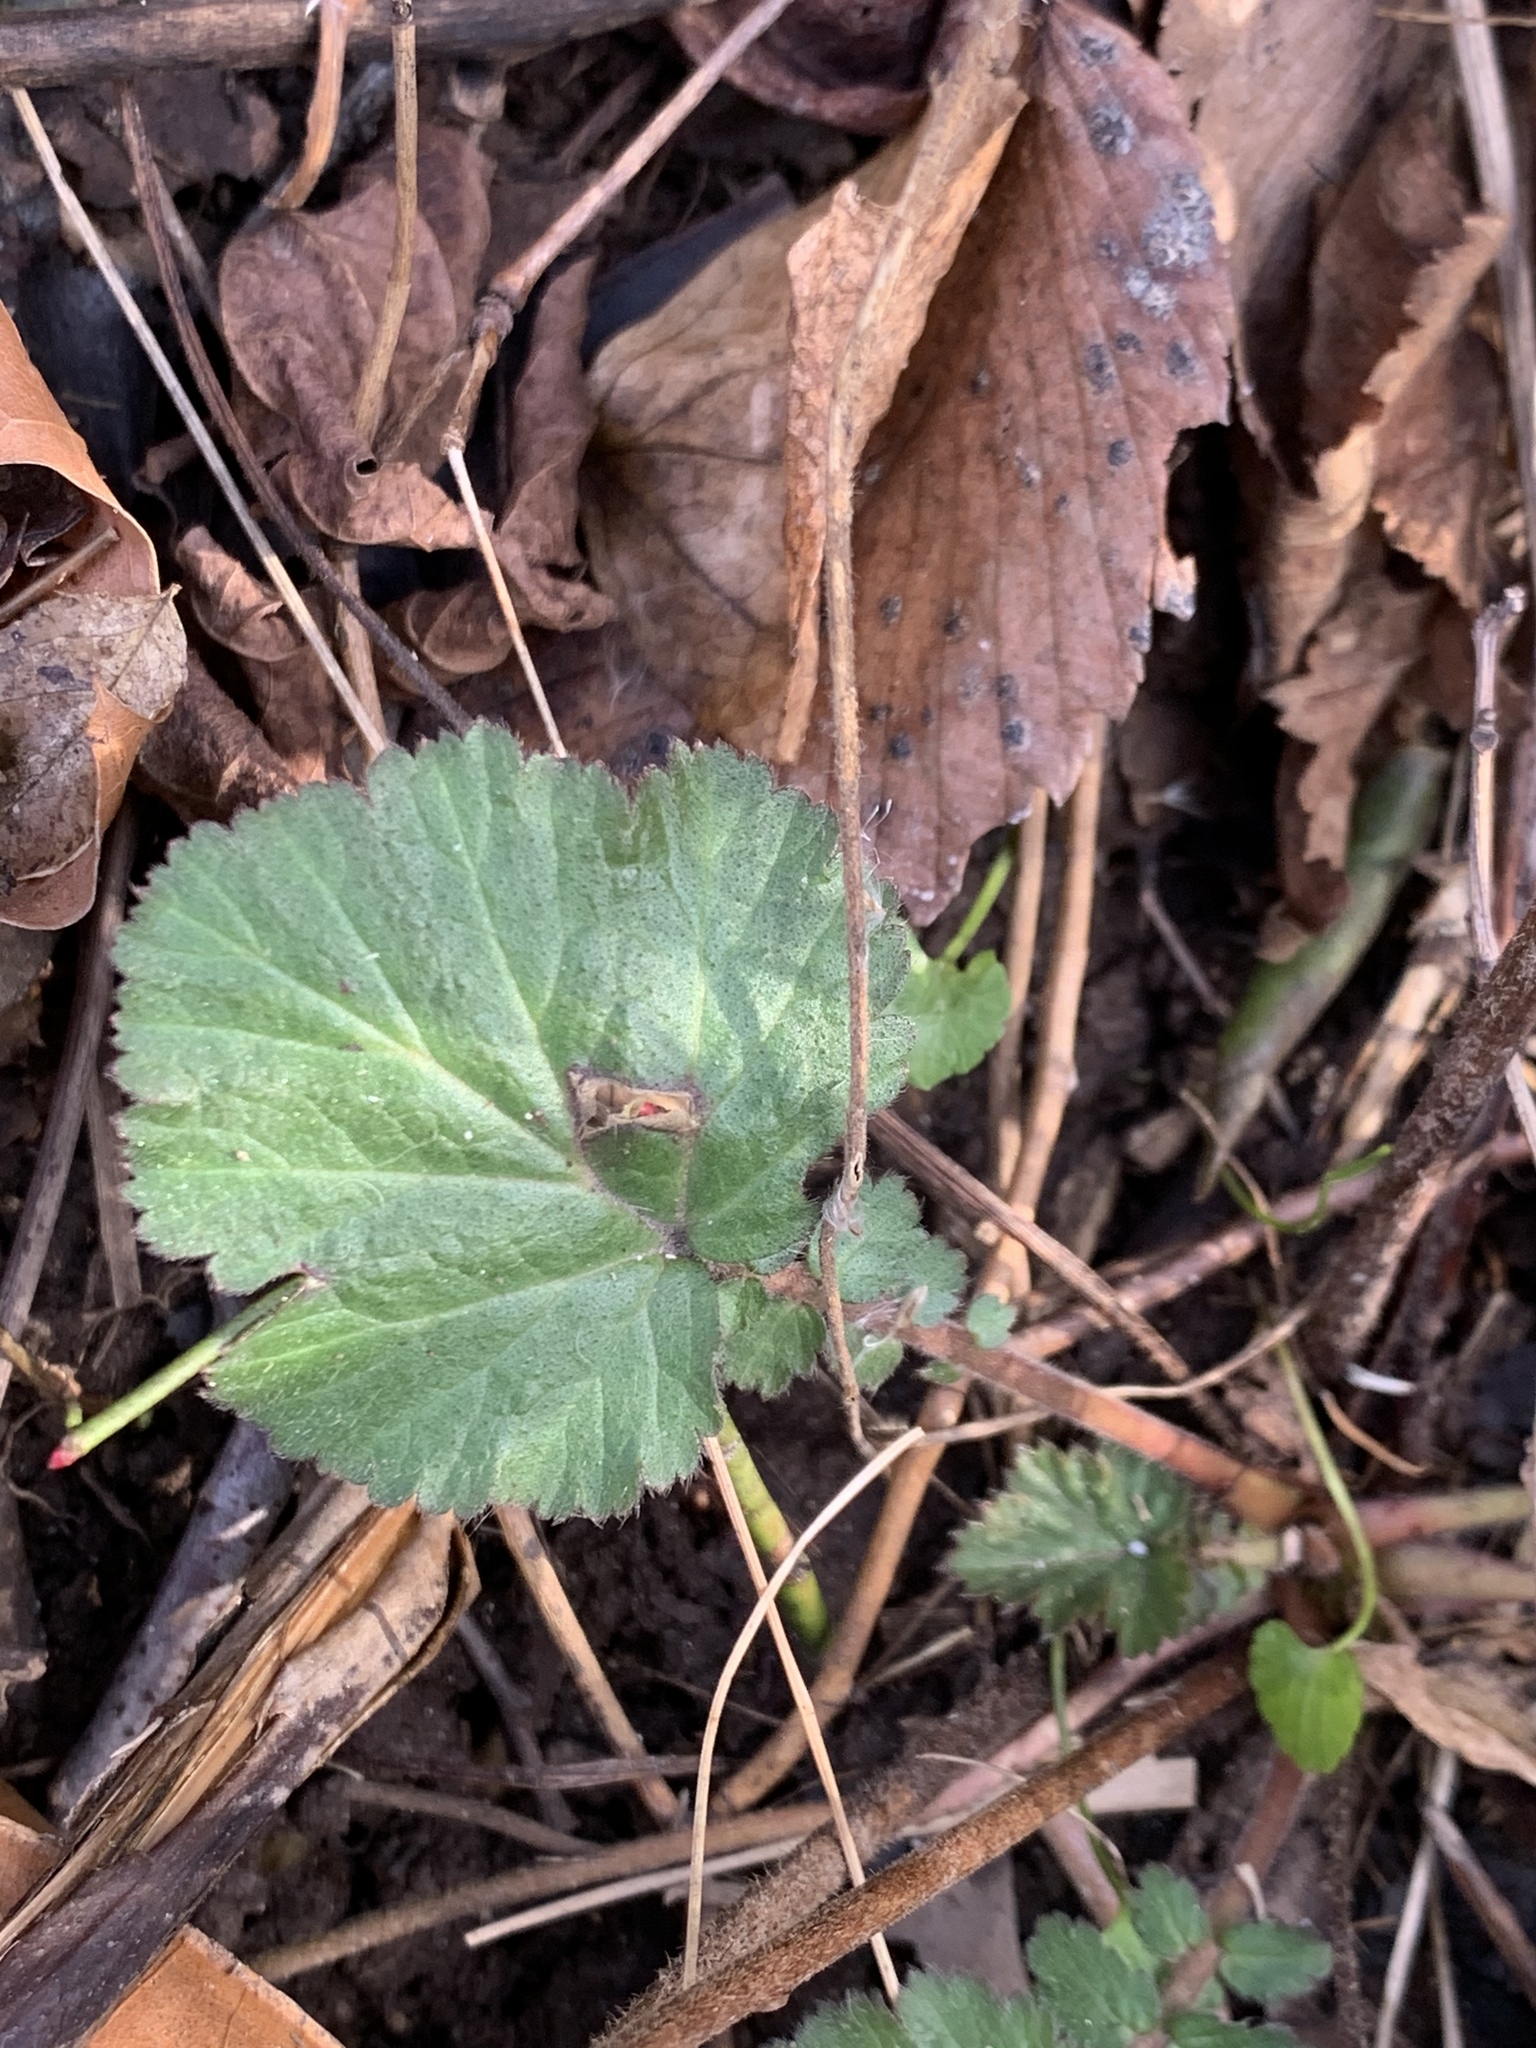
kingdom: Plantae
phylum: Tracheophyta
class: Magnoliopsida
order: Rosales
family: Rosaceae
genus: Geum
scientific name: Geum canadense
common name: White avens
